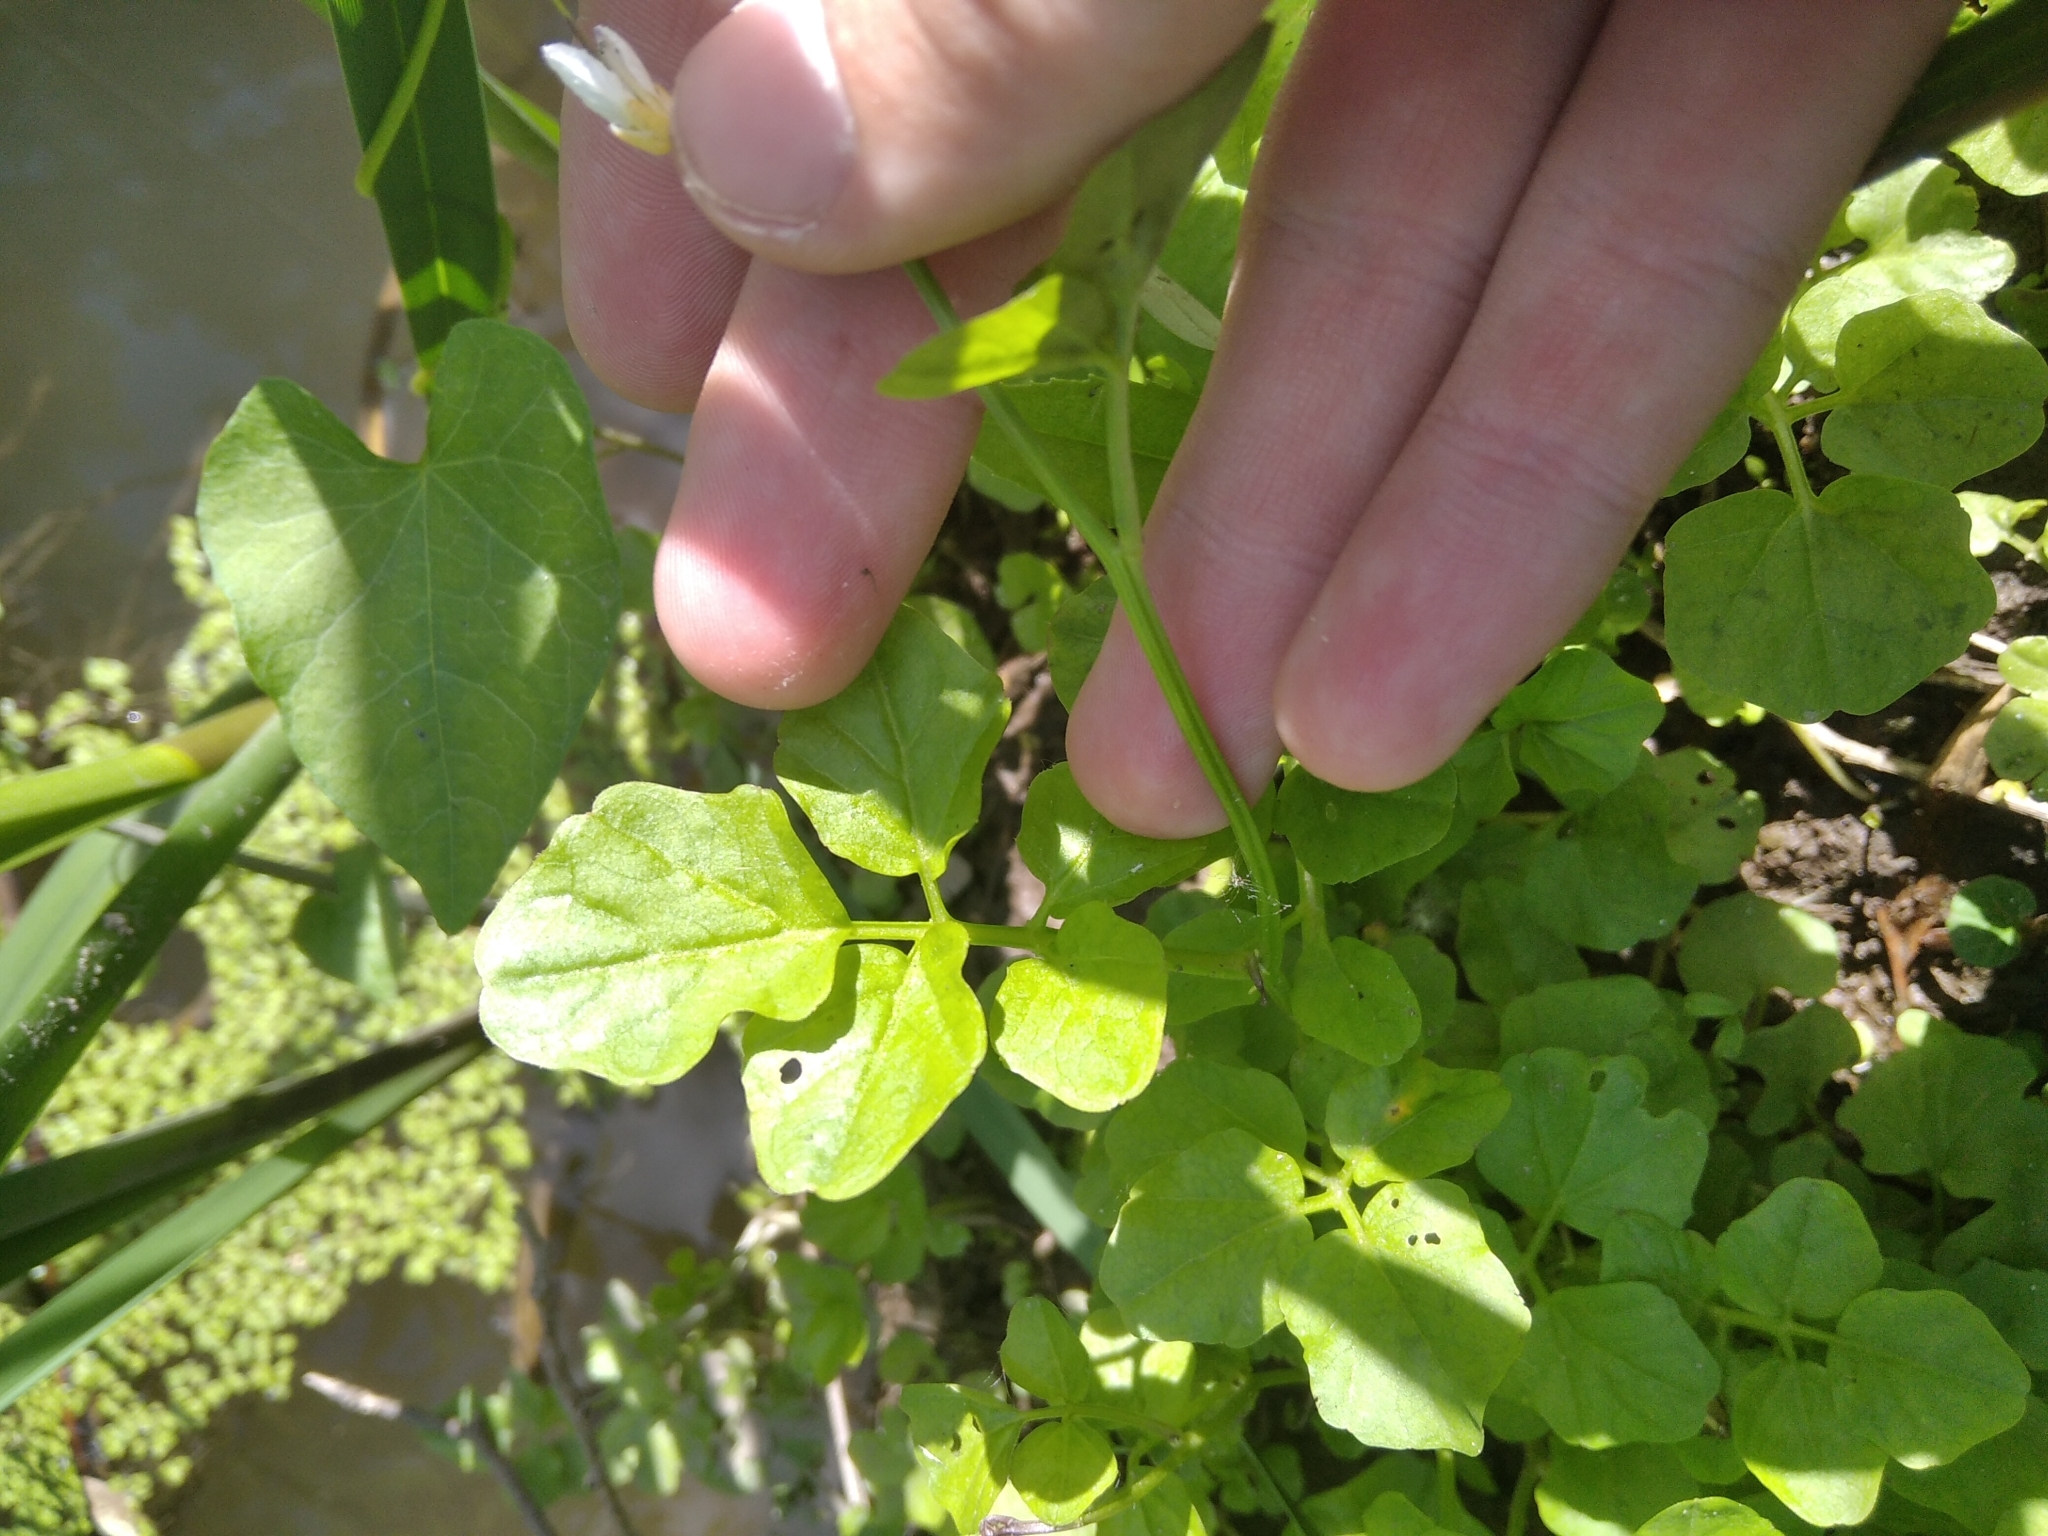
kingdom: Plantae
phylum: Tracheophyta
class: Magnoliopsida
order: Brassicales
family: Brassicaceae
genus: Cardamine
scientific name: Cardamine amara
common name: Large bitter-cress
